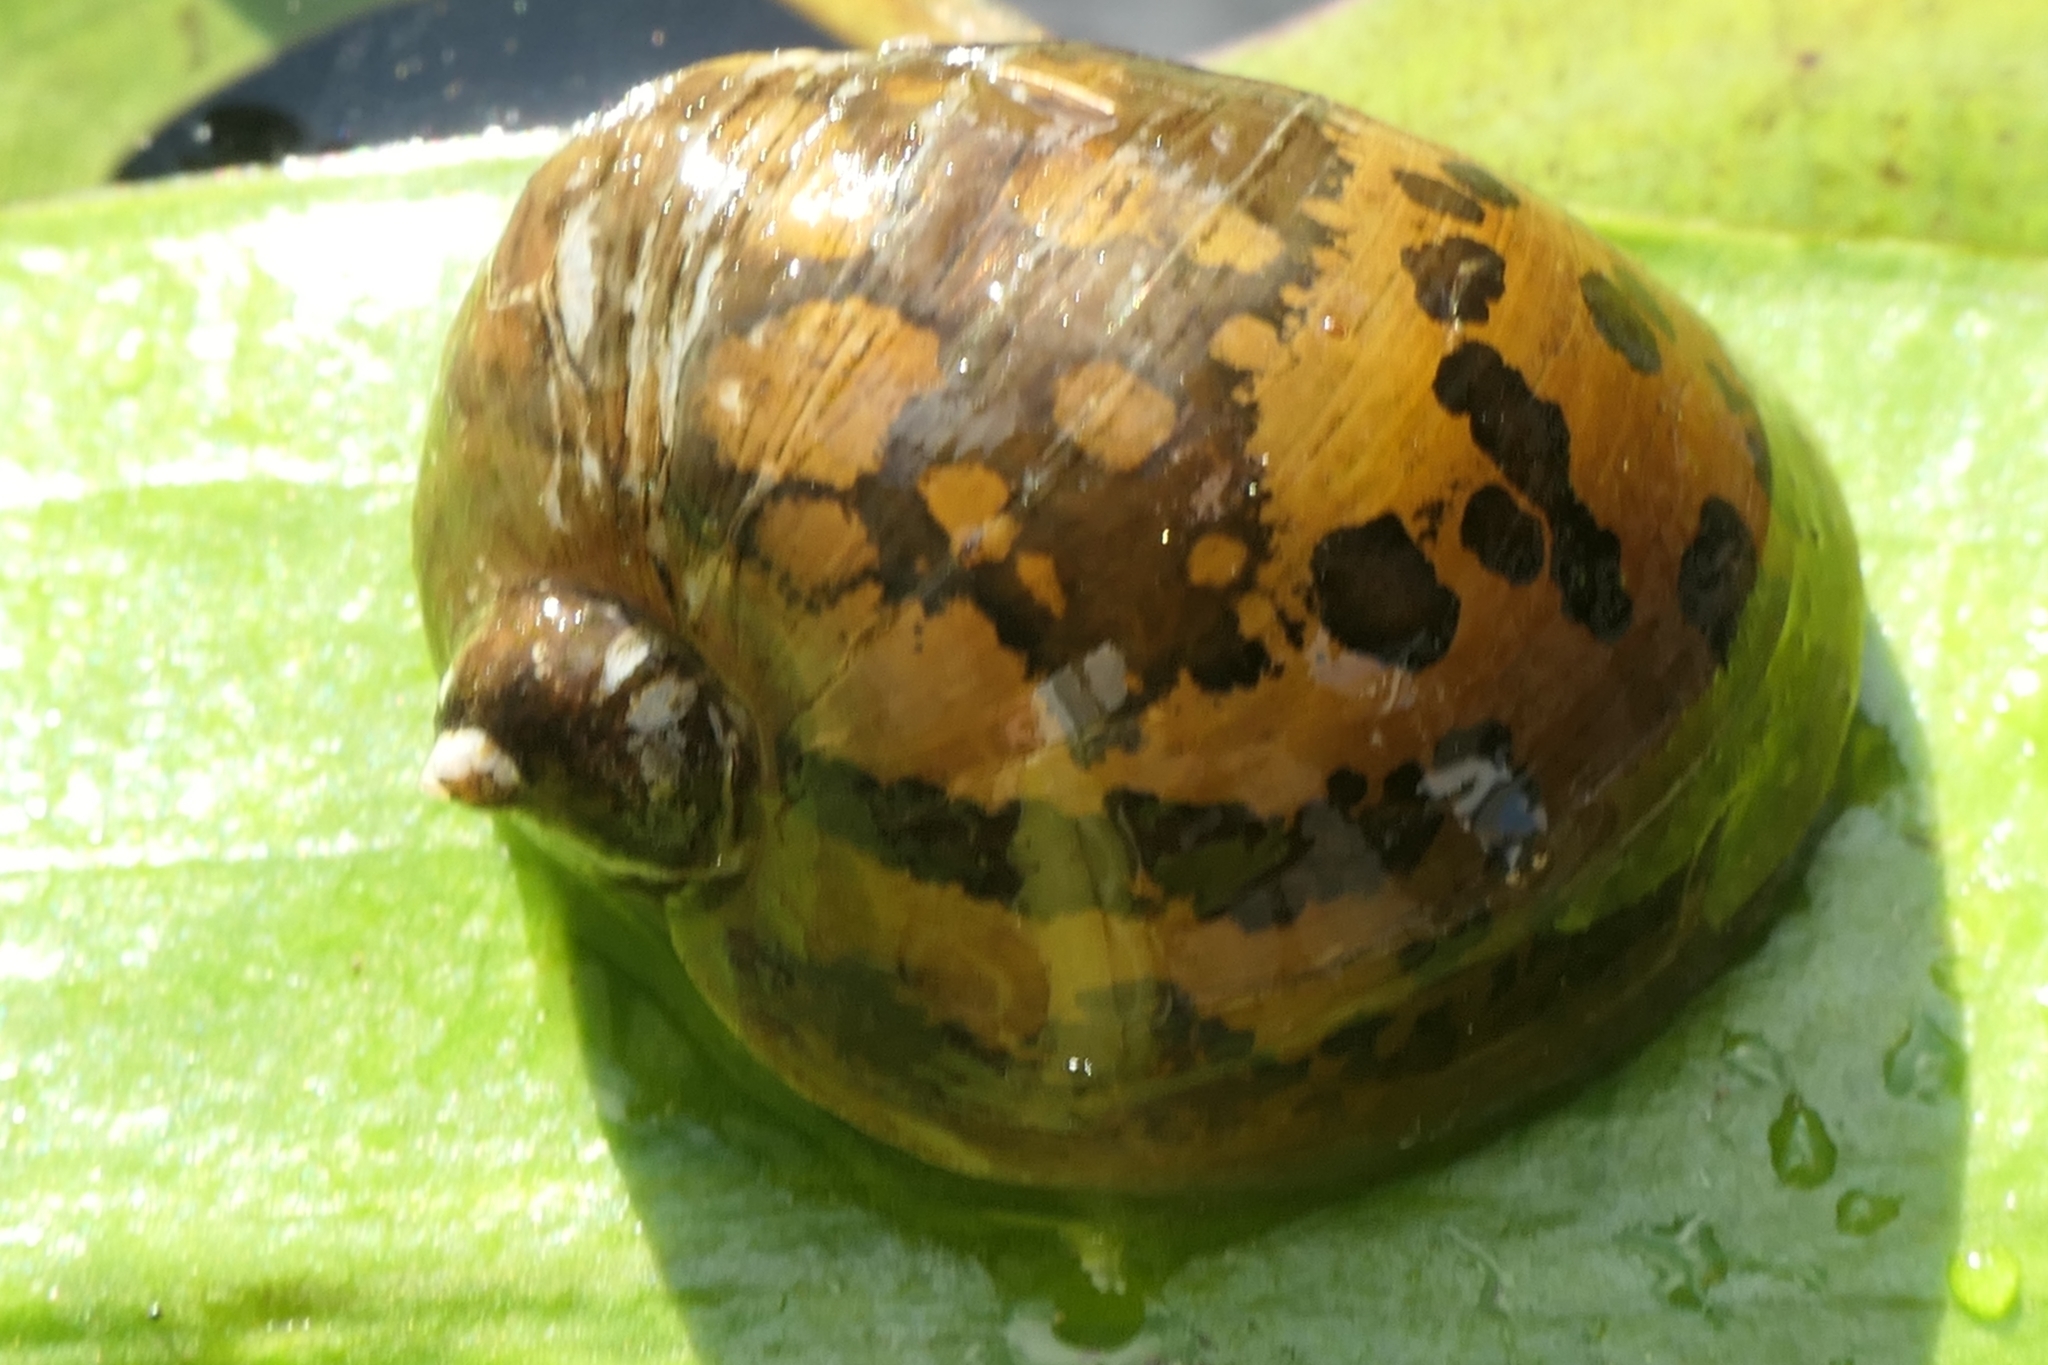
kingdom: Animalia
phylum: Mollusca
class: Gastropoda
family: Lymnaeidae
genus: Radix
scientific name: Radix auricularia
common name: Ear pond snail
